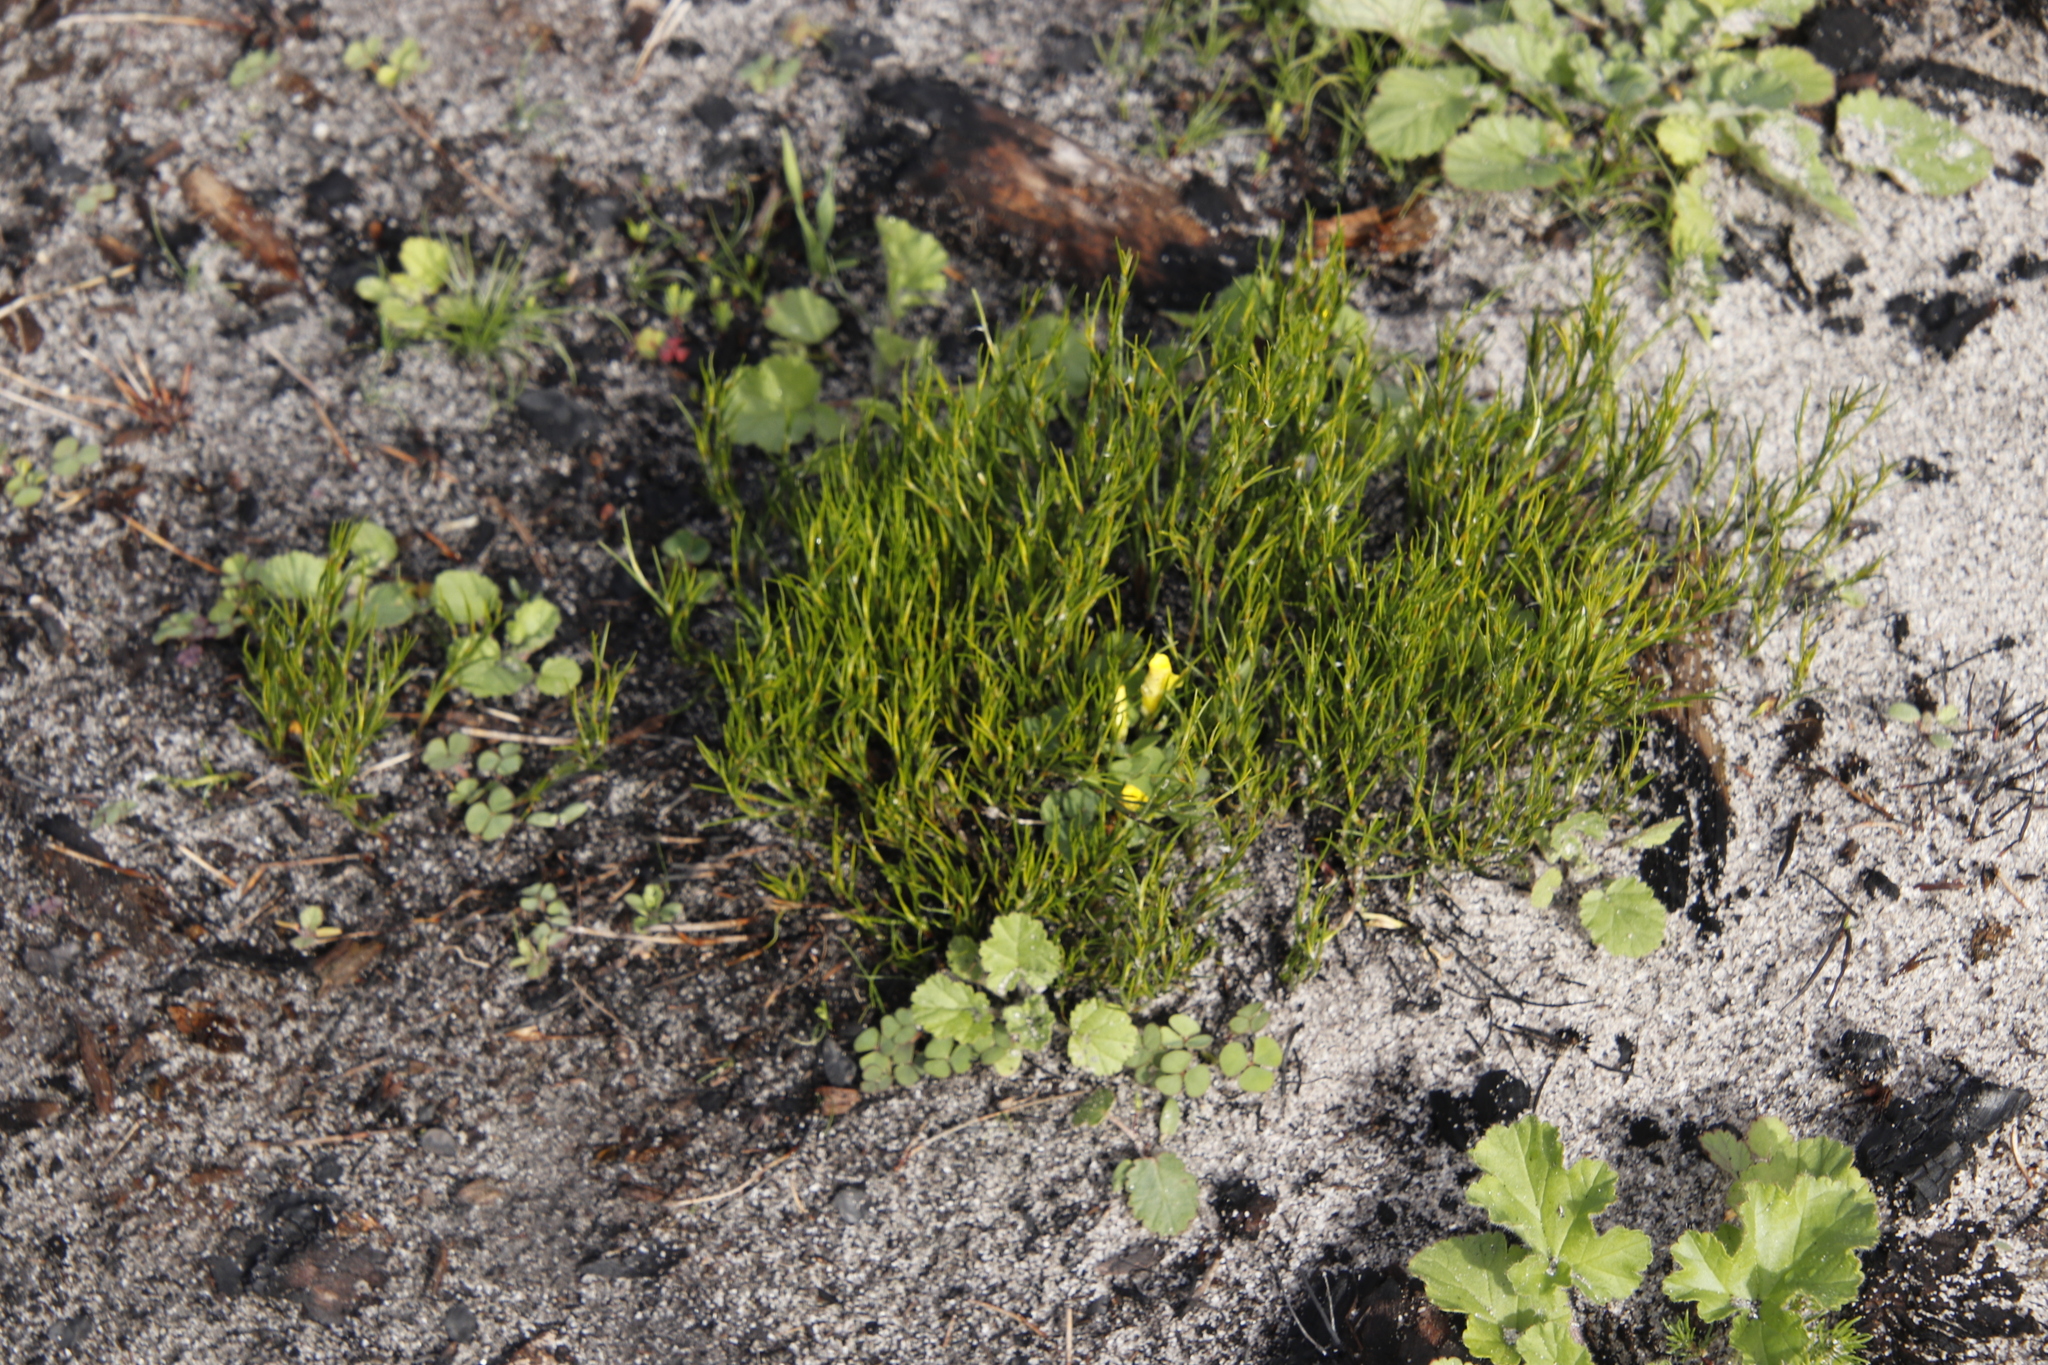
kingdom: Plantae
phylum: Tracheophyta
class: Liliopsida
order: Poales
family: Restionaceae
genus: Restio
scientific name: Restio capensis
